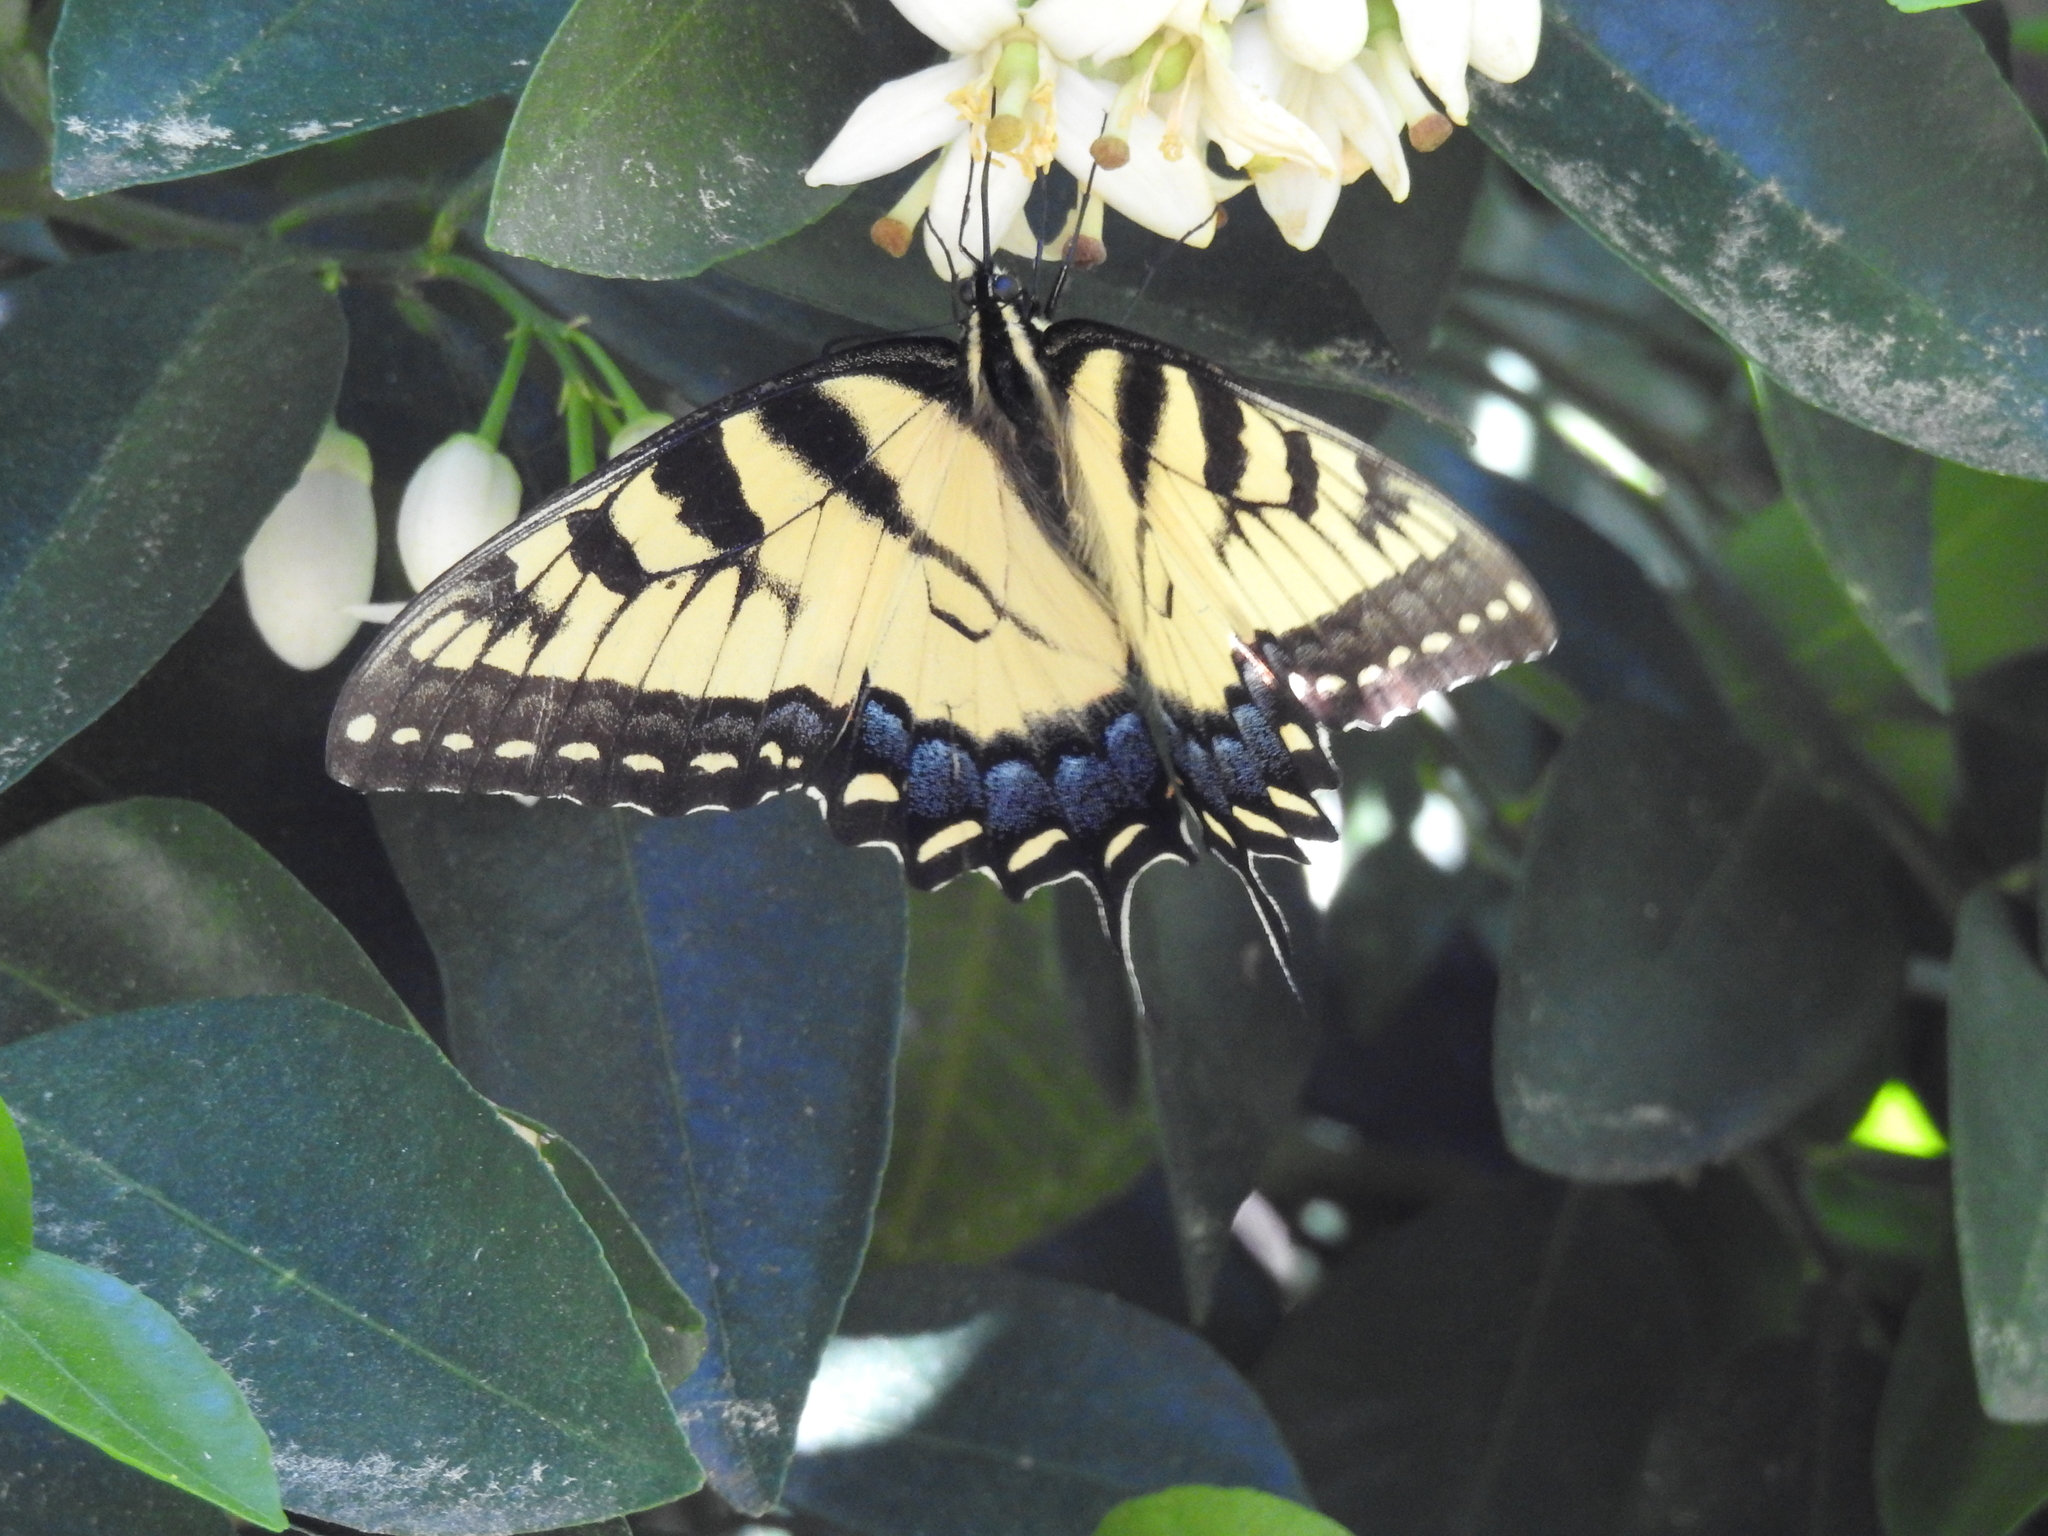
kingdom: Animalia
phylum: Arthropoda
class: Insecta
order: Lepidoptera
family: Papilionidae
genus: Papilio
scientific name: Papilio glaucus
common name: Tiger swallowtail
